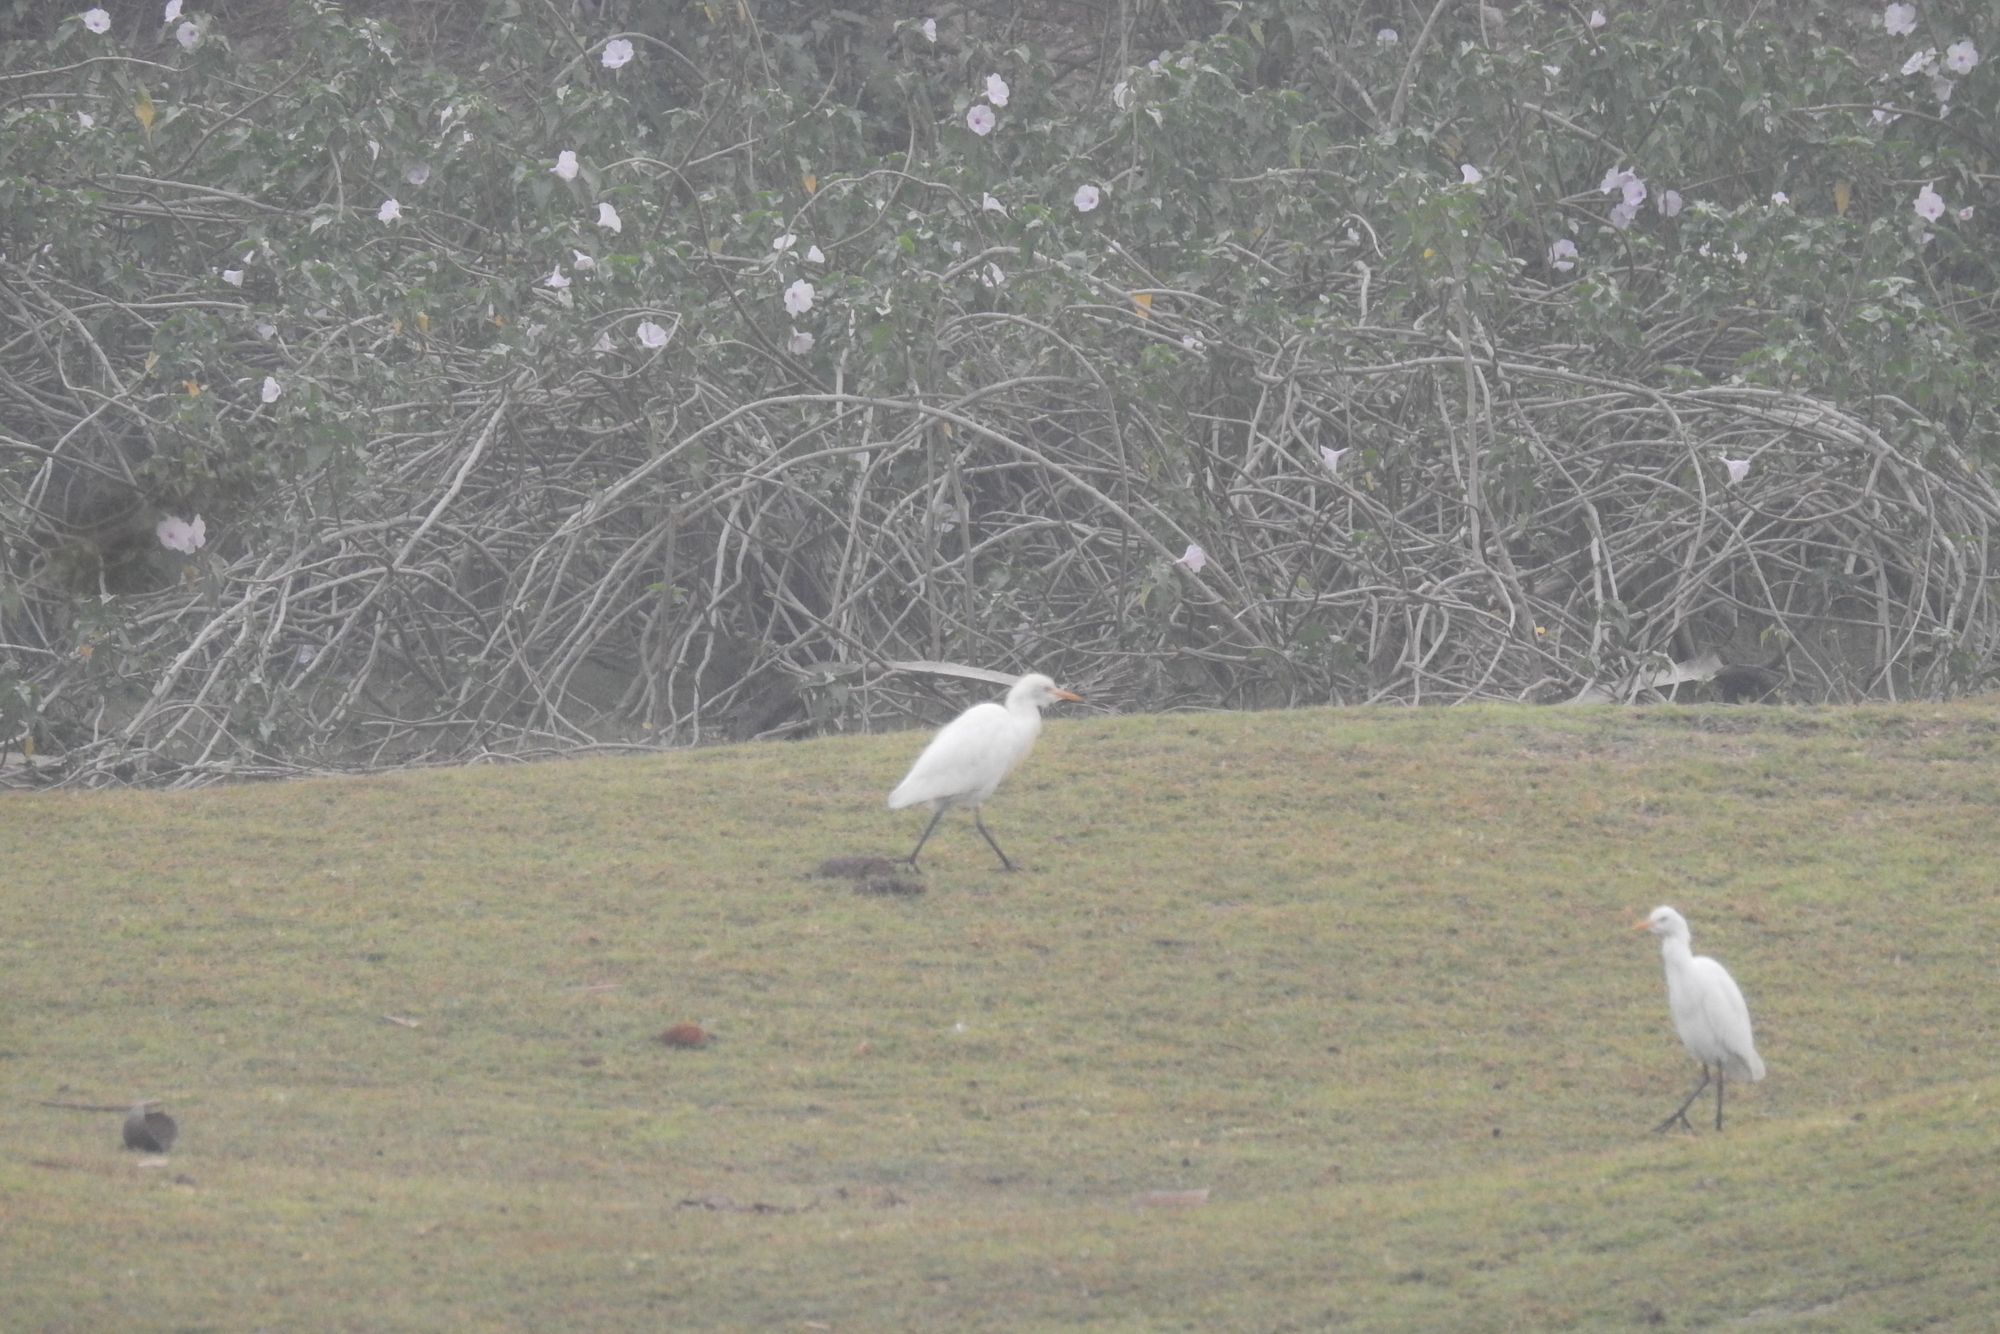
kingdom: Animalia
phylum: Chordata
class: Aves
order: Pelecaniformes
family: Ardeidae
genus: Bubulcus
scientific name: Bubulcus coromandus
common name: Eastern cattle egret
